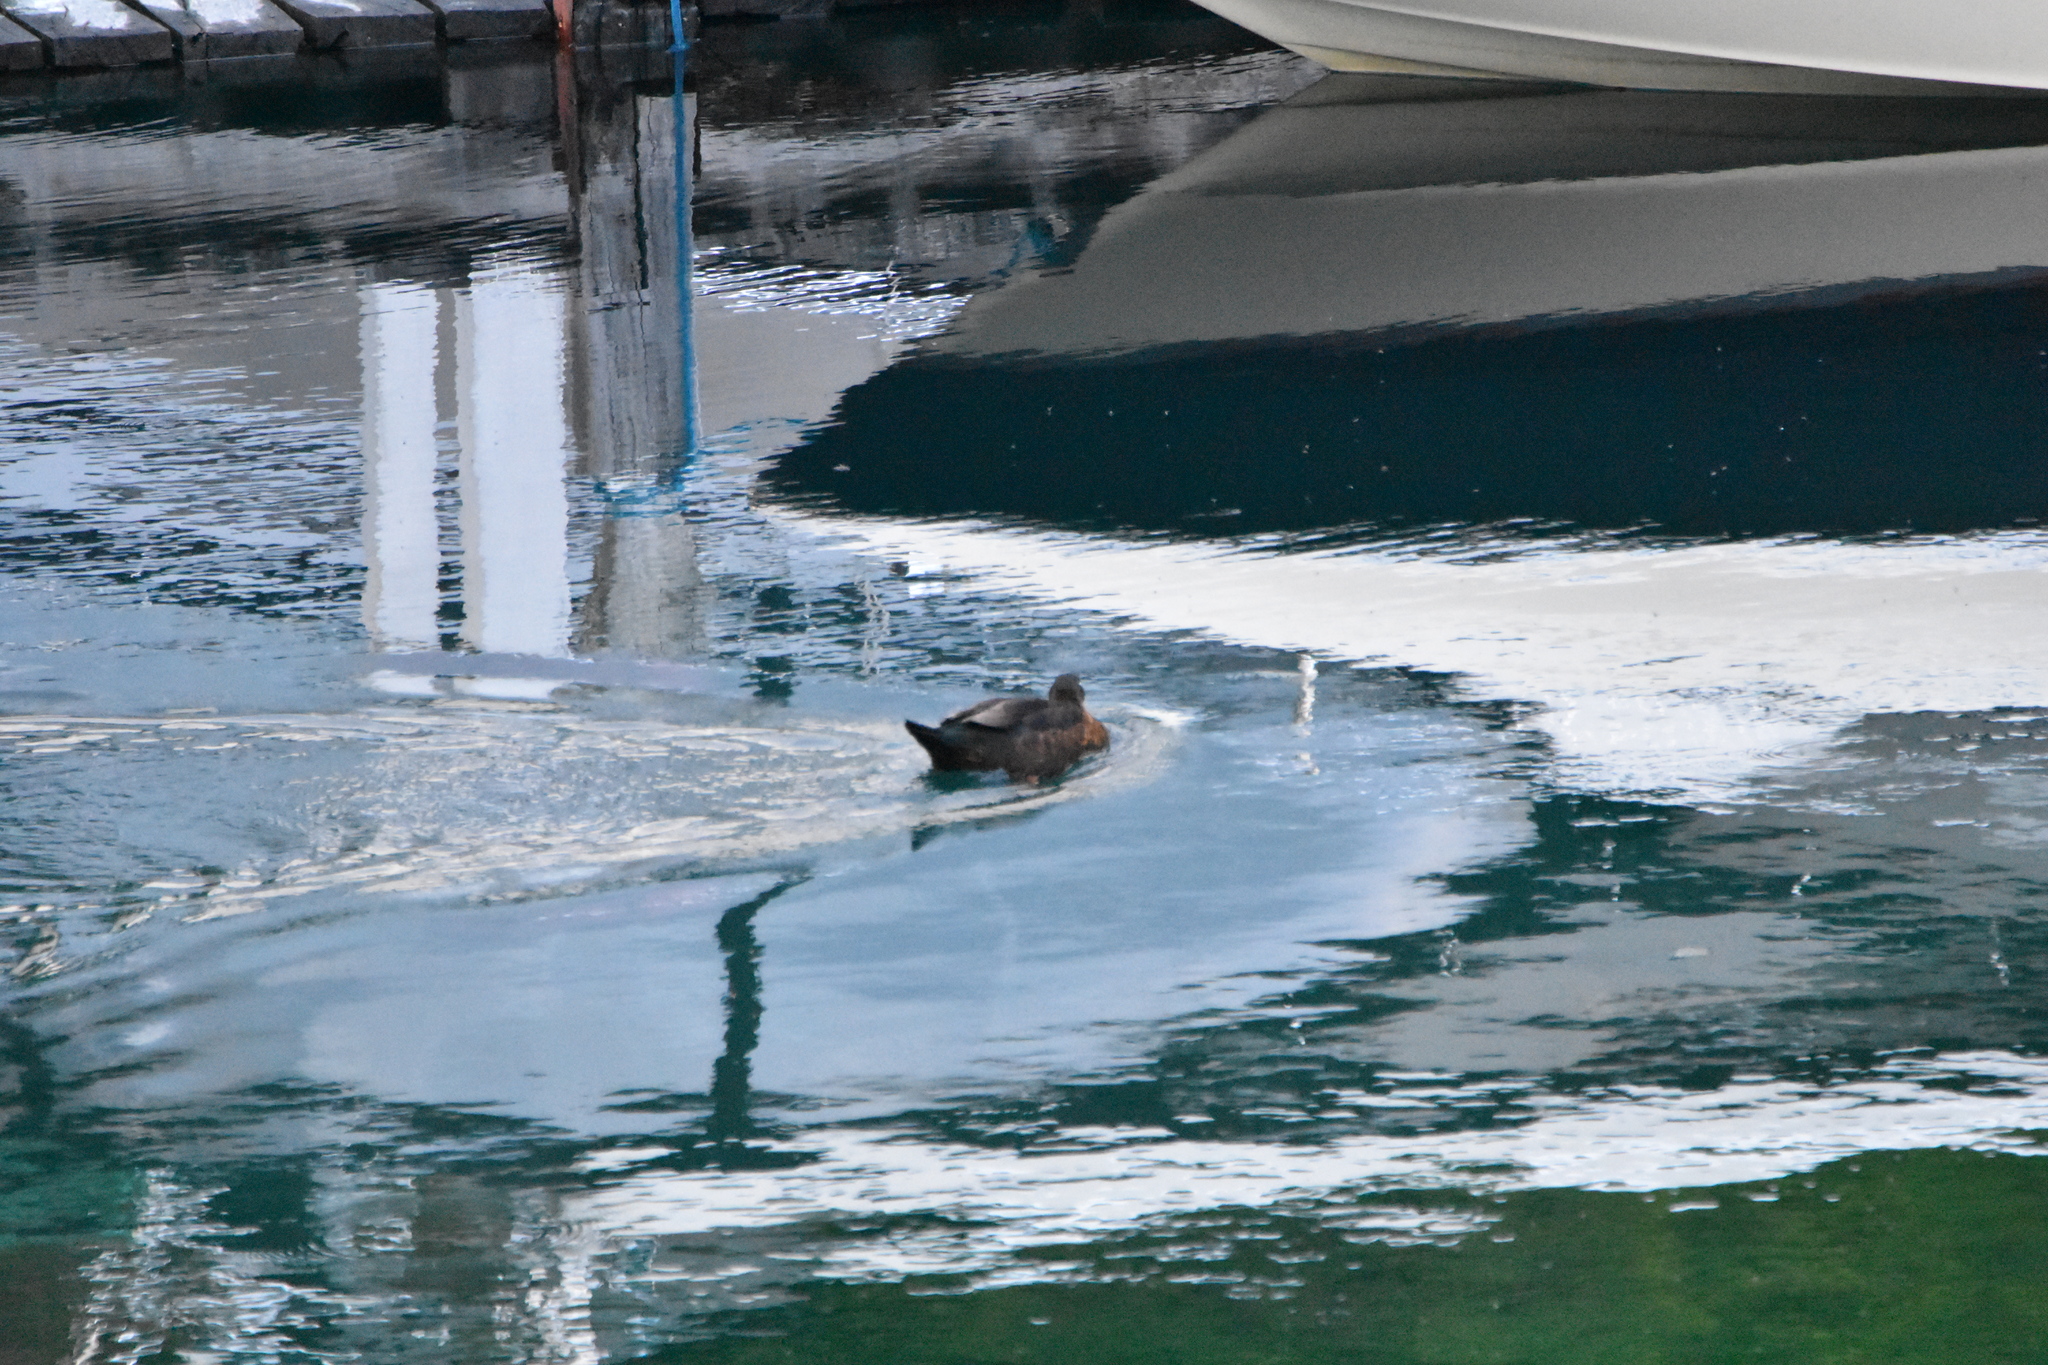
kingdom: Animalia
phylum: Chordata
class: Aves
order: Anseriformes
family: Anatidae
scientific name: Anatidae
